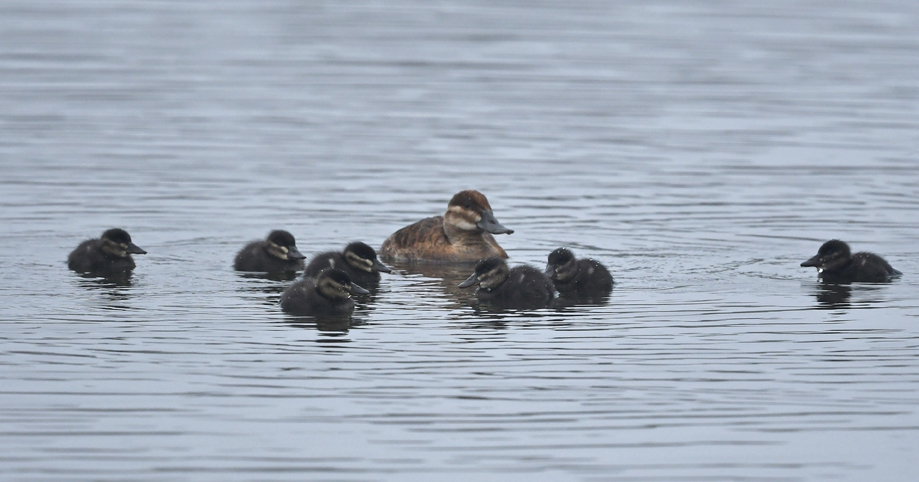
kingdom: Animalia
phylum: Chordata
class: Aves
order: Anseriformes
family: Anatidae
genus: Oxyura
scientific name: Oxyura jamaicensis
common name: Ruddy duck
